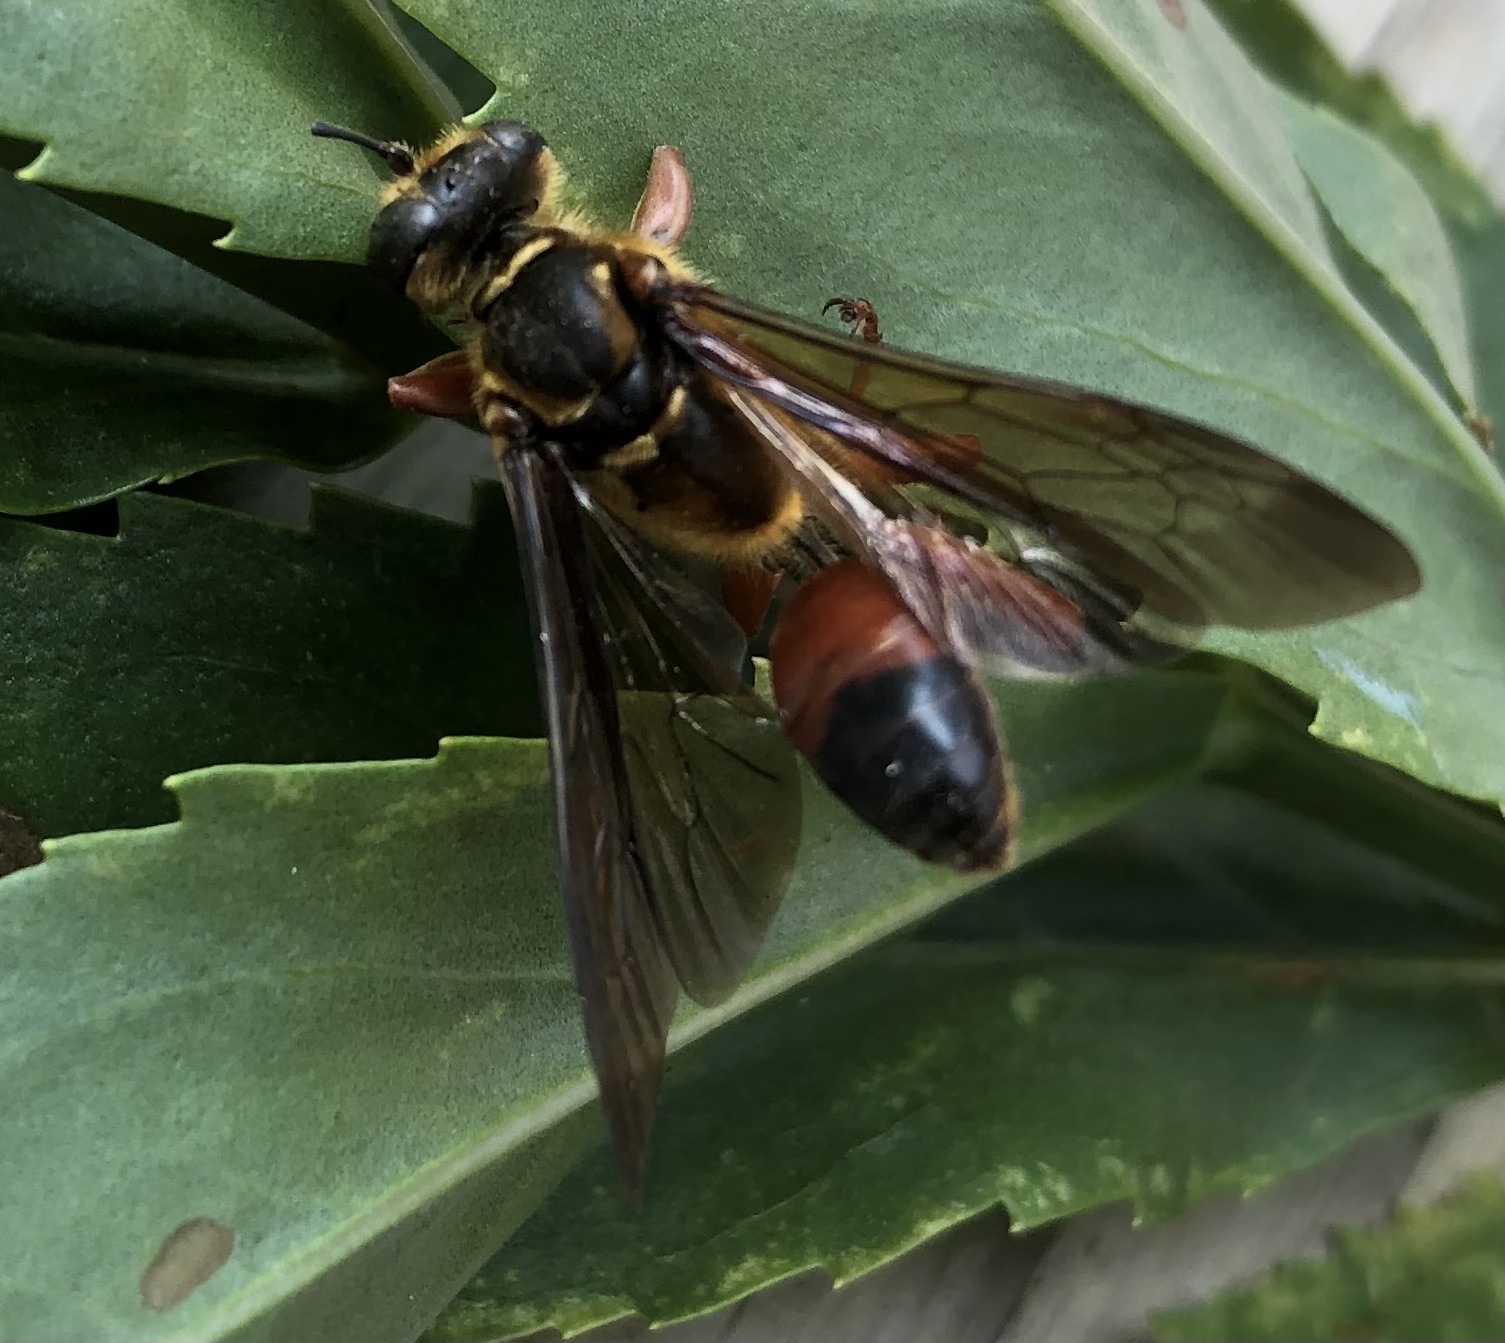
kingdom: Animalia
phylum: Arthropoda
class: Insecta
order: Hymenoptera
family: Sphecidae
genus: Sphex
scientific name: Sphex ichneumoneus
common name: Great golden digger wasp
